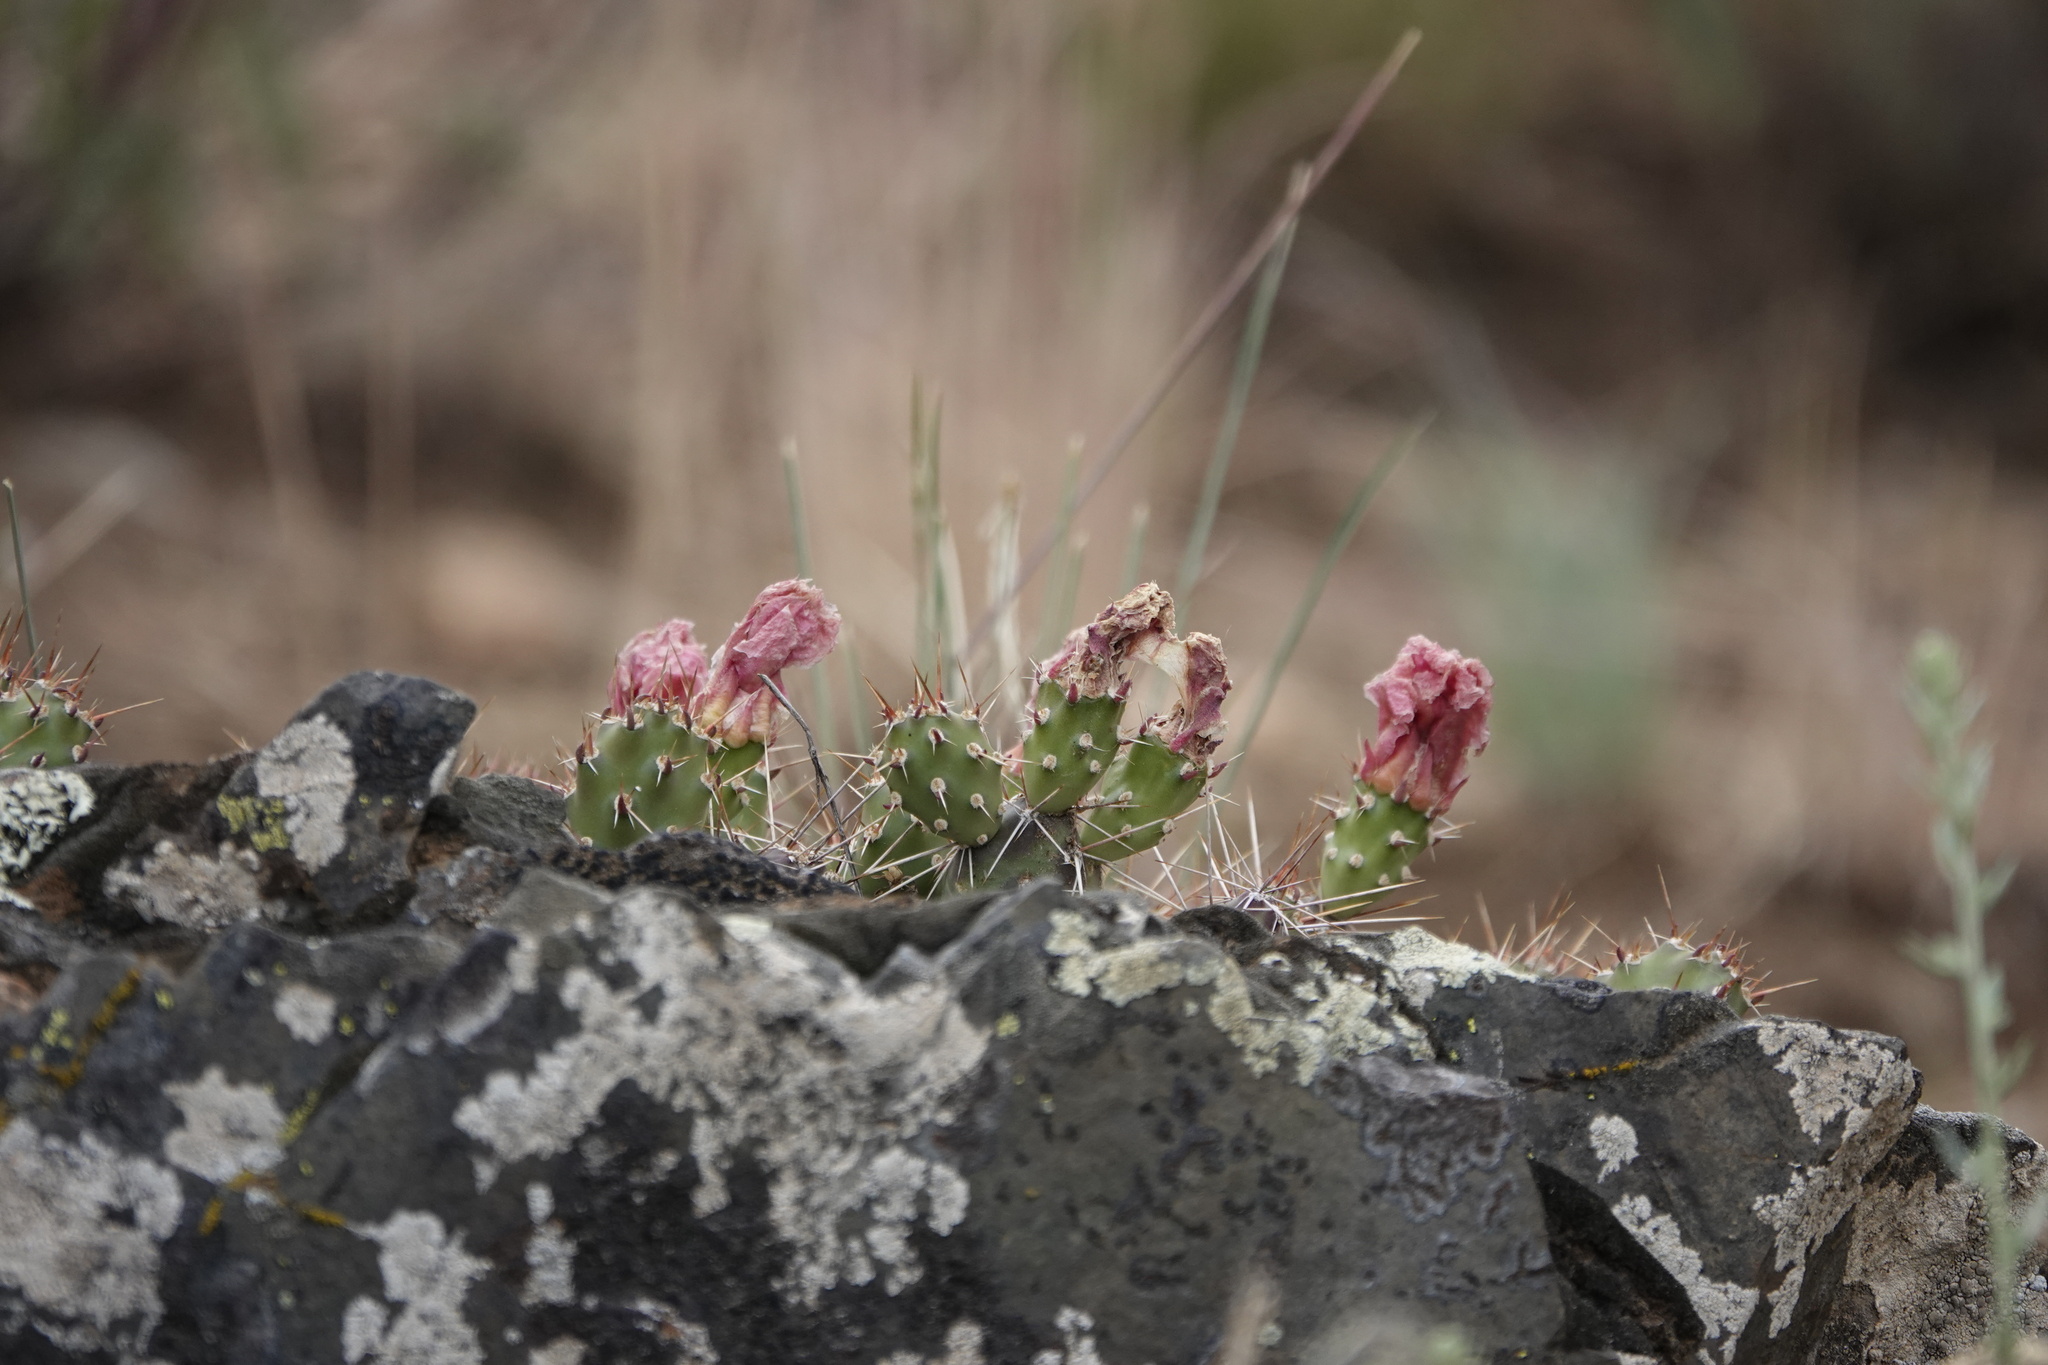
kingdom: Plantae
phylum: Tracheophyta
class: Magnoliopsida
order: Caryophyllales
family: Cactaceae
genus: Opuntia
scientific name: Opuntia fragilis
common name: Brittle cactus
